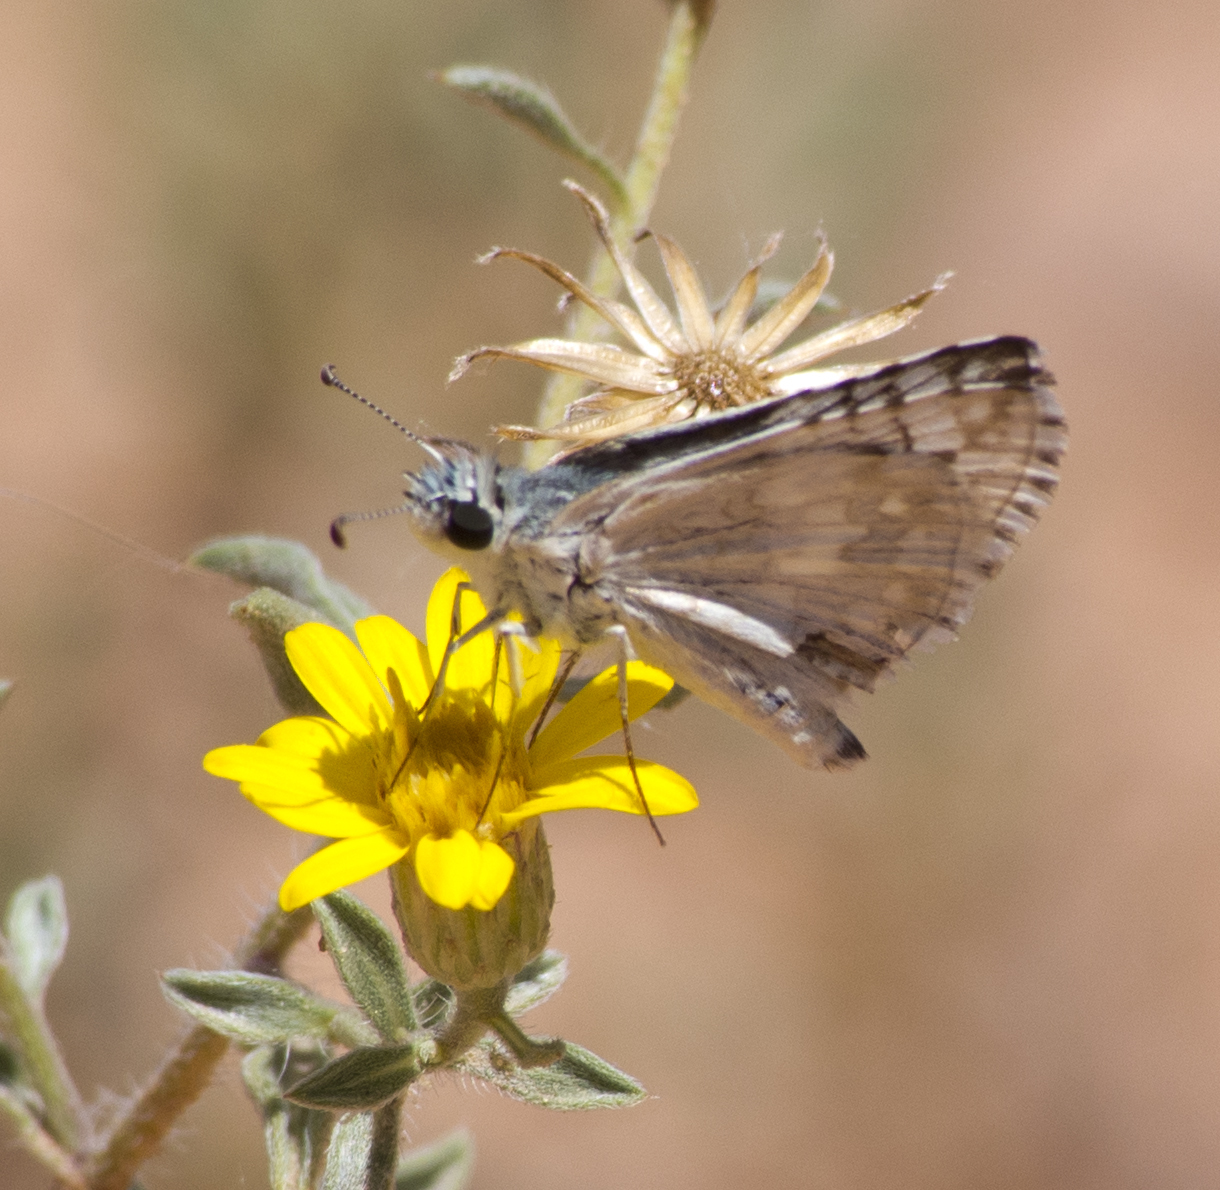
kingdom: Animalia
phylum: Arthropoda
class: Insecta
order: Lepidoptera
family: Hesperiidae
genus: Burnsius
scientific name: Burnsius communis
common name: Common checkered-skipper
